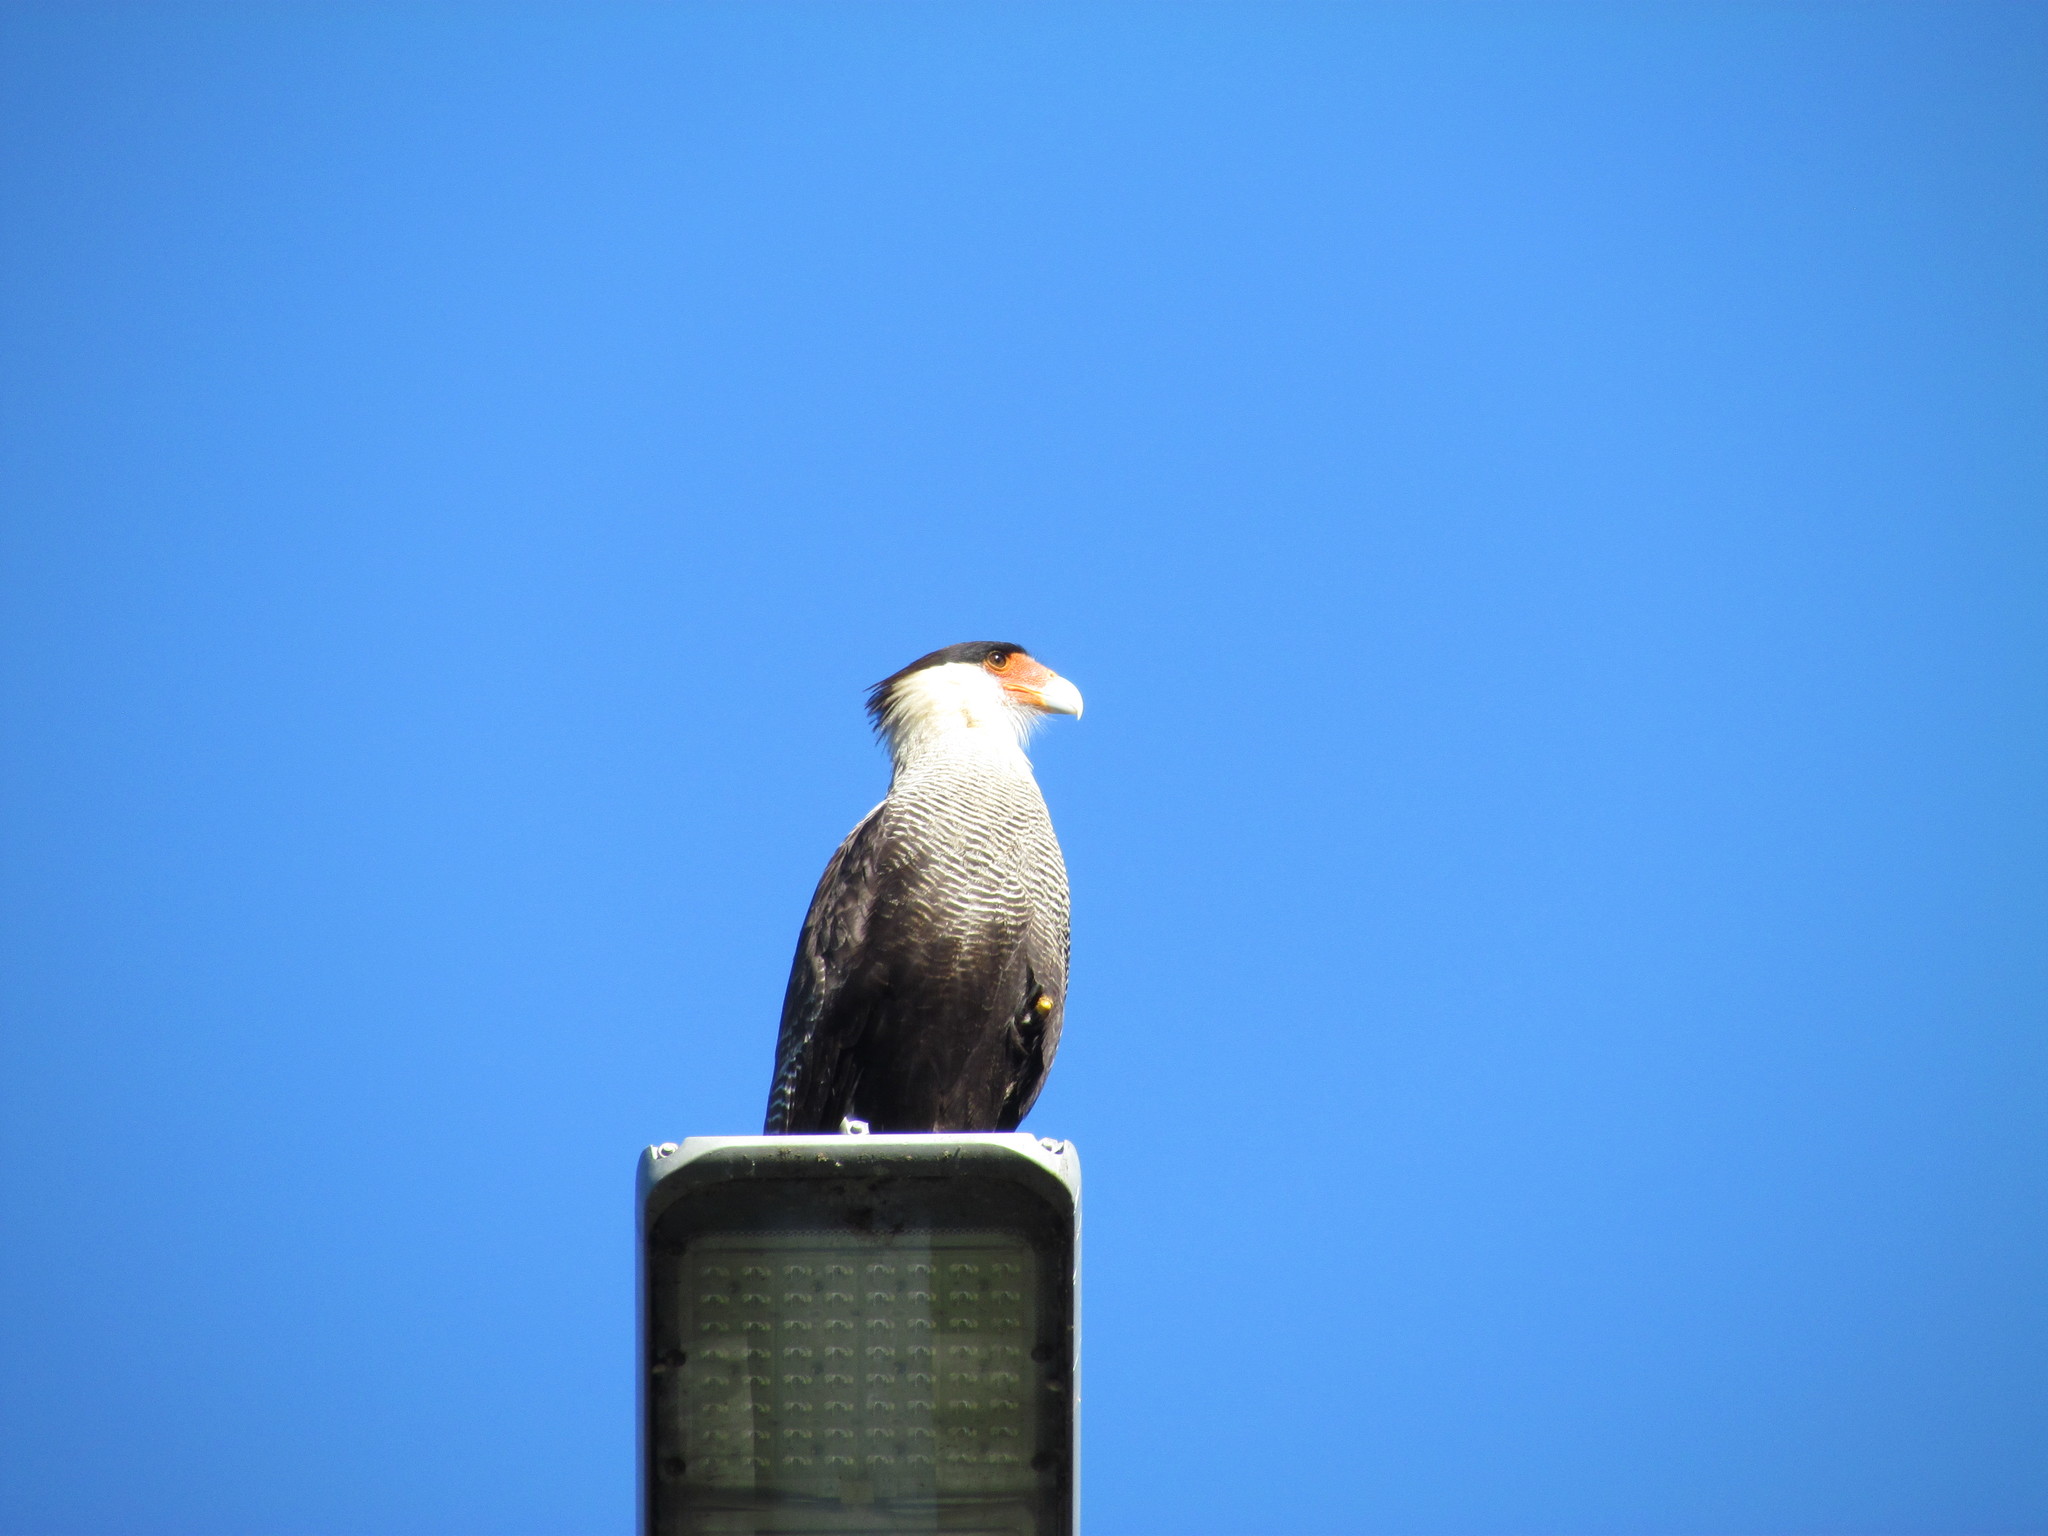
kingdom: Animalia
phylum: Chordata
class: Aves
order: Falconiformes
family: Falconidae
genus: Caracara
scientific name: Caracara plancus
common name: Southern caracara
